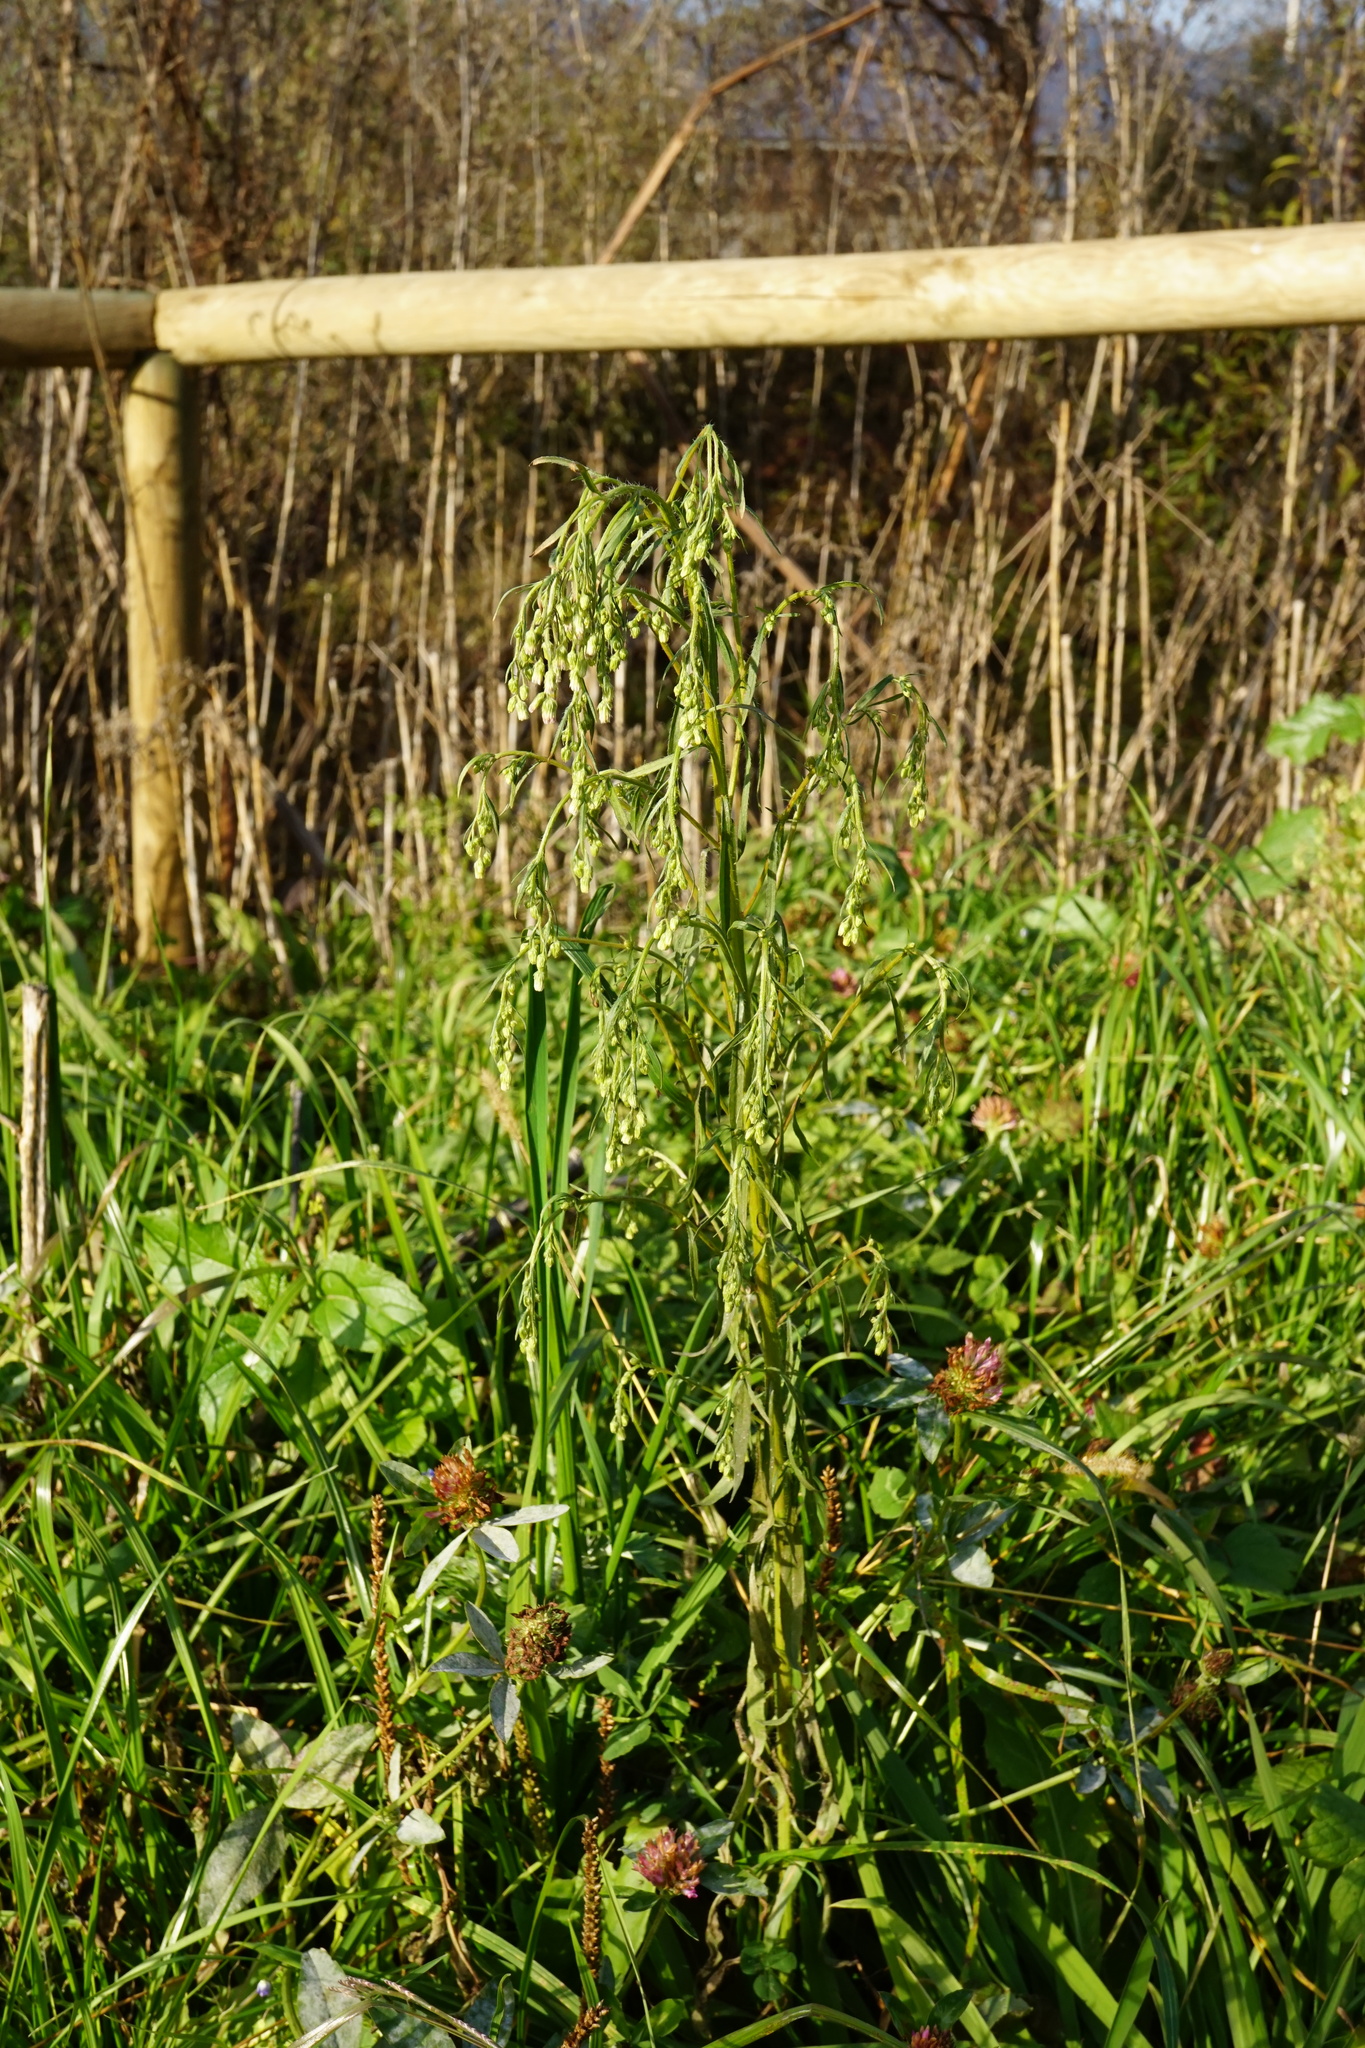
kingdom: Plantae
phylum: Tracheophyta
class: Magnoliopsida
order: Asterales
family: Asteraceae
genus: Erigeron
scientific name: Erigeron canadensis
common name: Canadian fleabane
